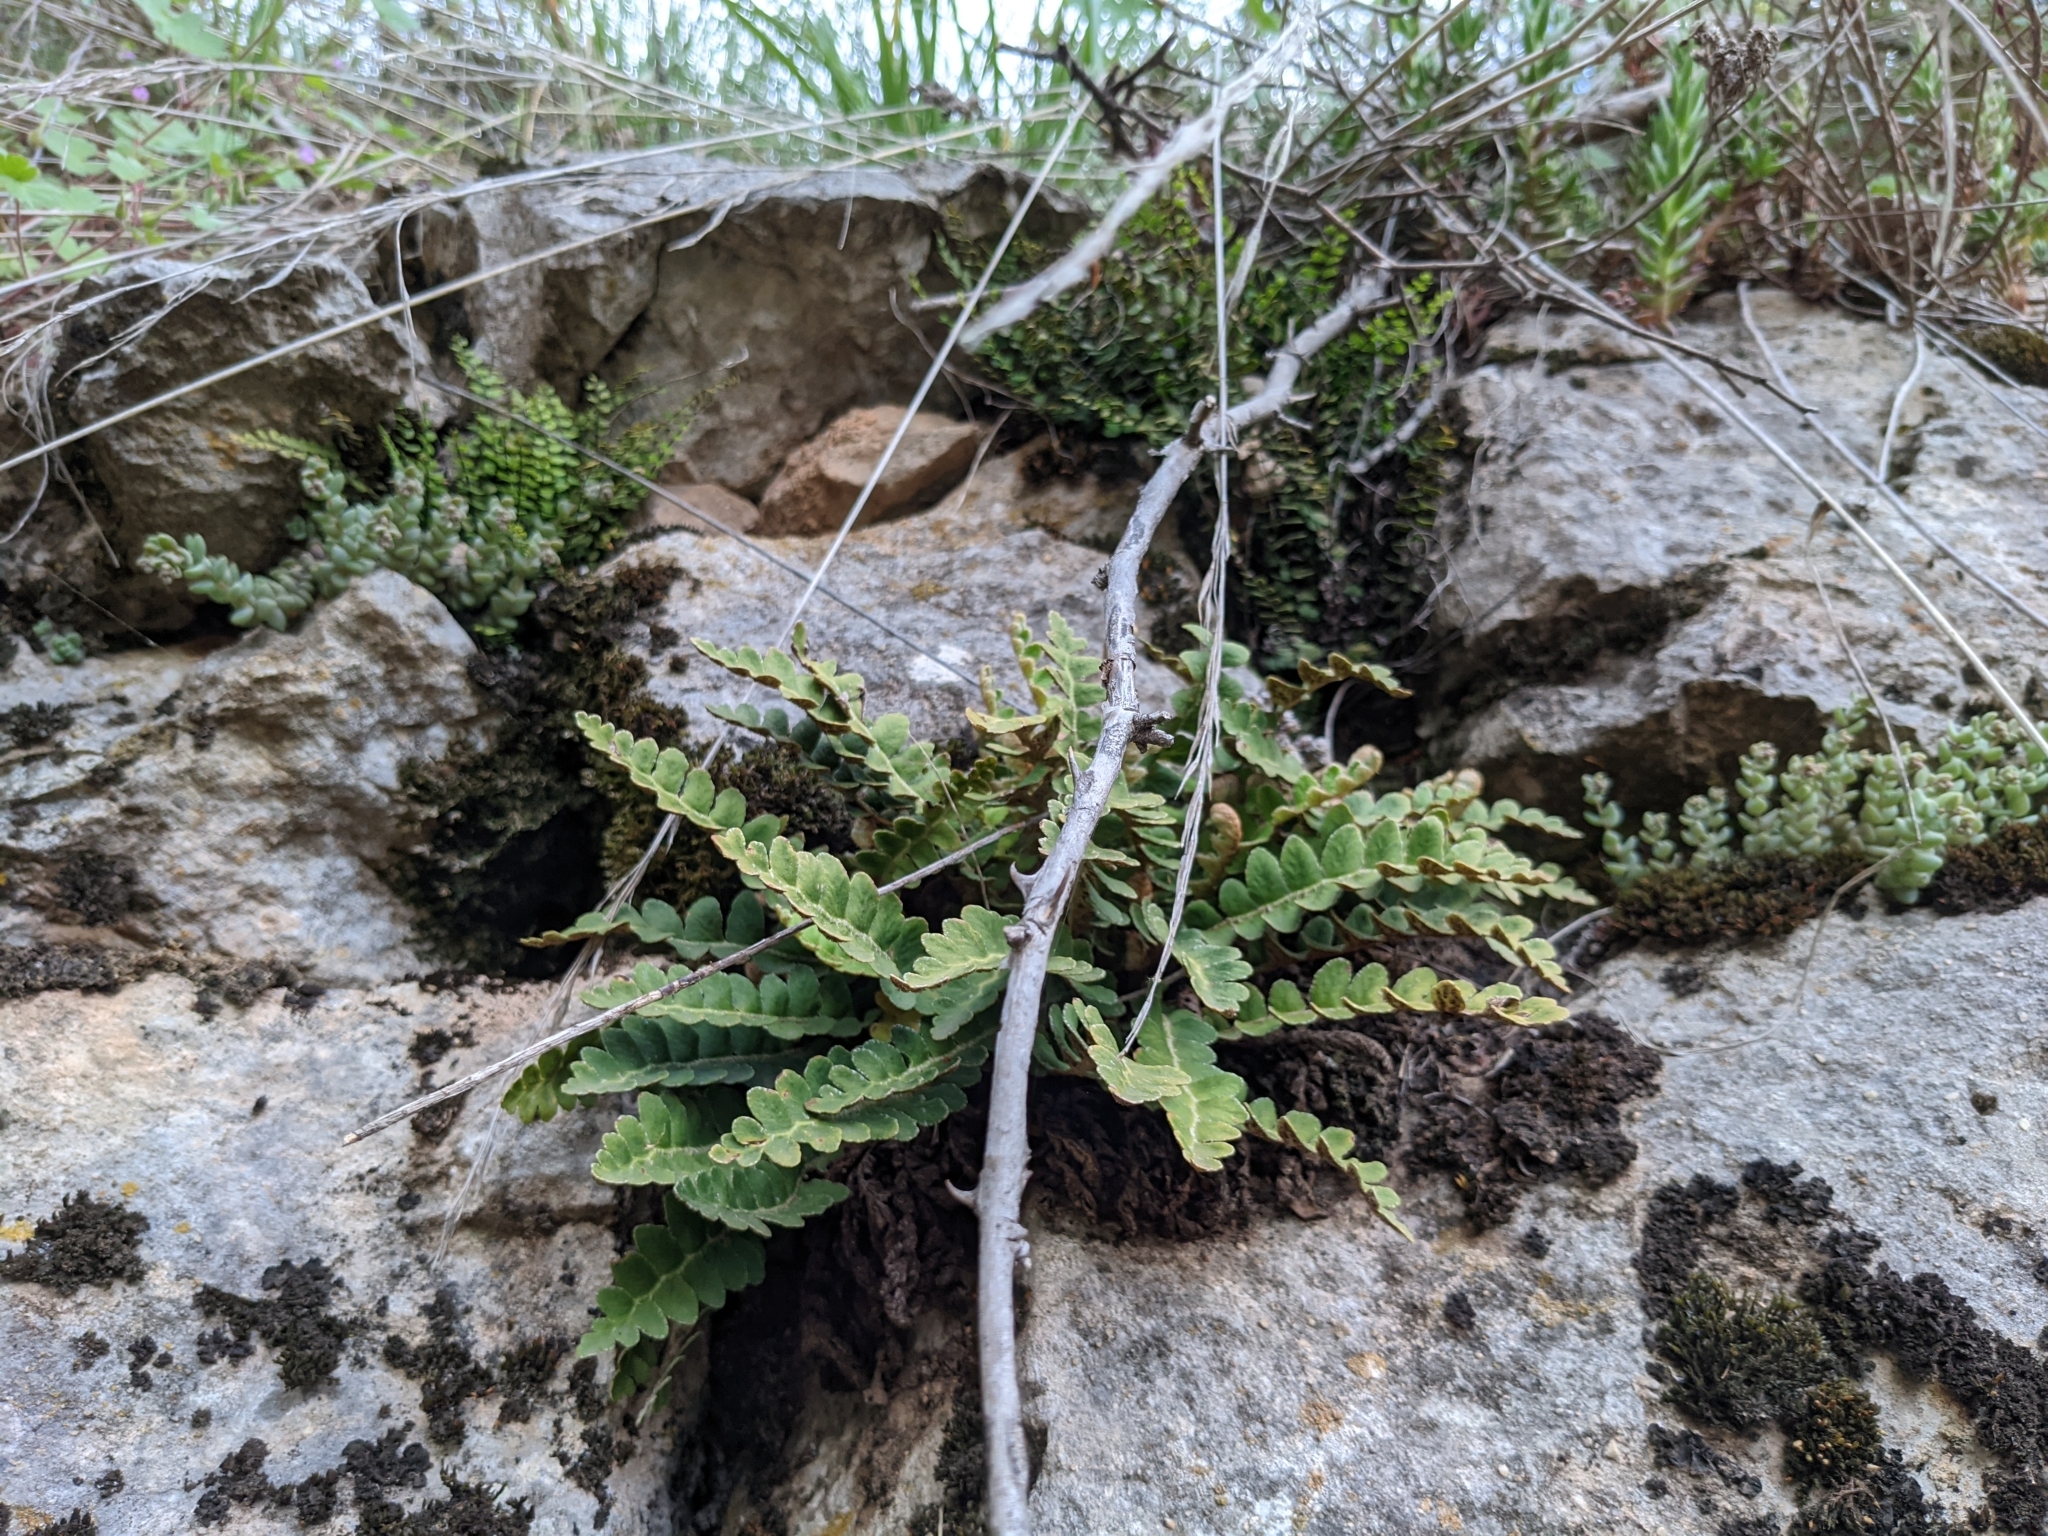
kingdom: Plantae
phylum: Tracheophyta
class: Polypodiopsida
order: Polypodiales
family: Aspleniaceae
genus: Asplenium
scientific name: Asplenium ceterach
